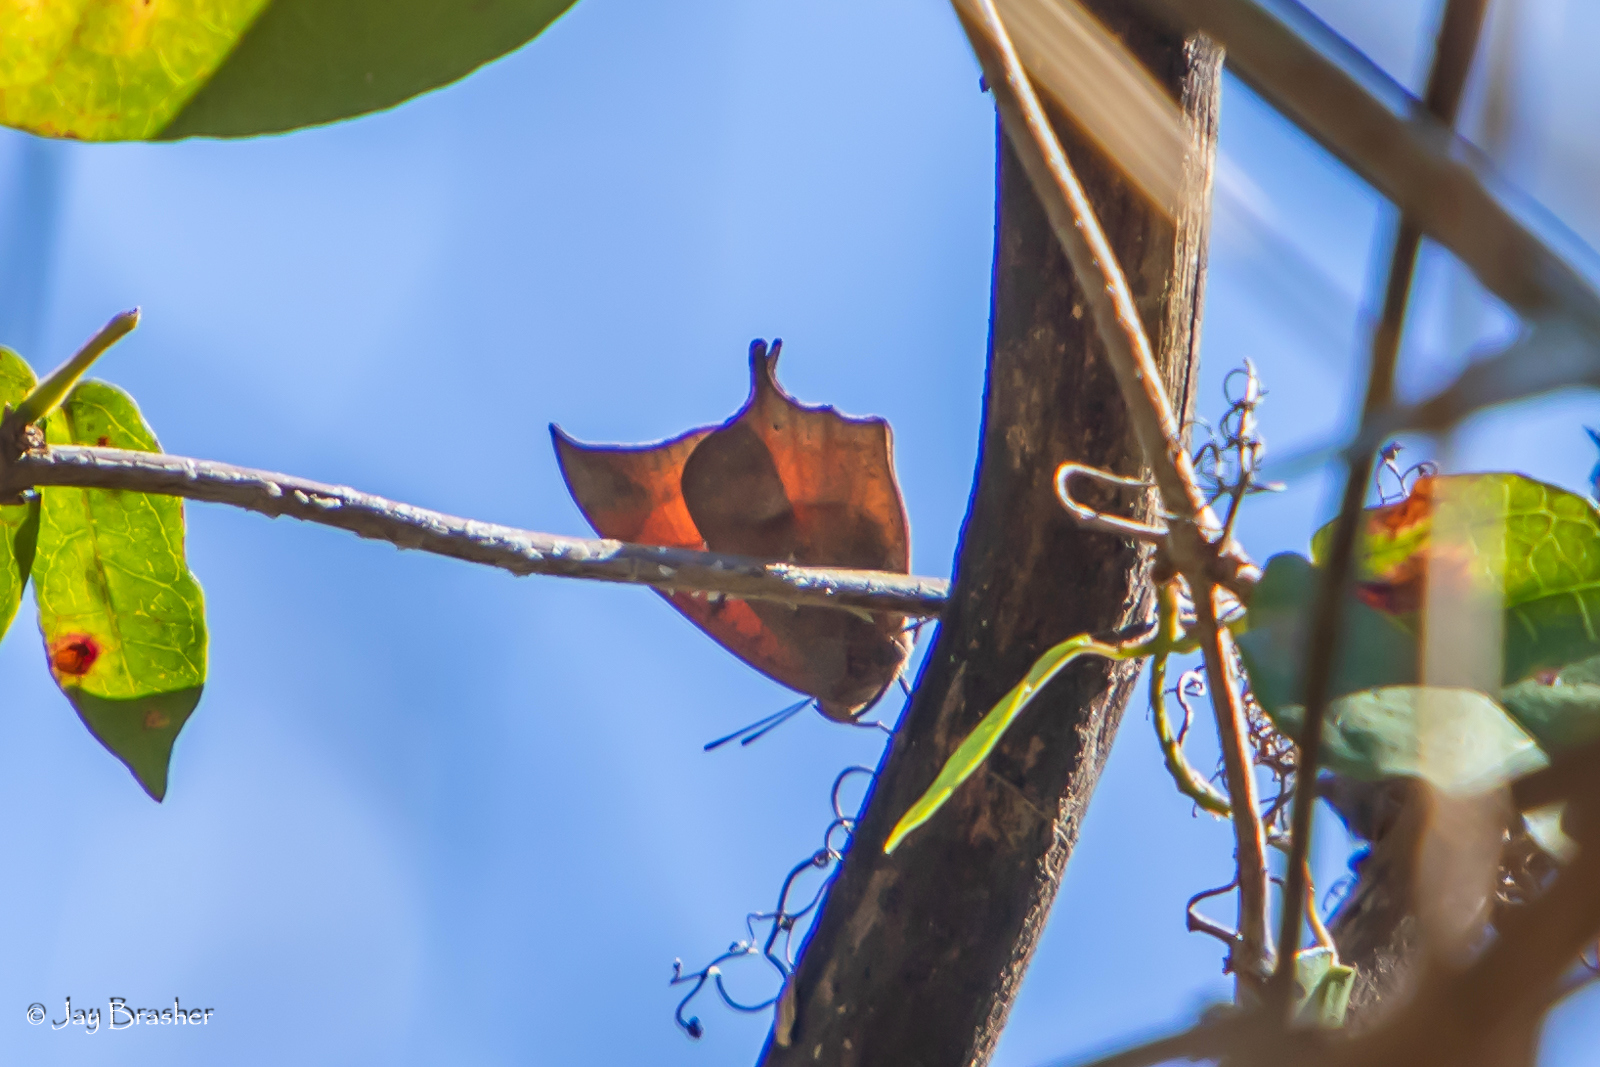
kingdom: Animalia
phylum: Arthropoda
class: Insecta
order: Lepidoptera
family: Nymphalidae
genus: Anaea
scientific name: Anaea andria
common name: Goatweed leafwing
